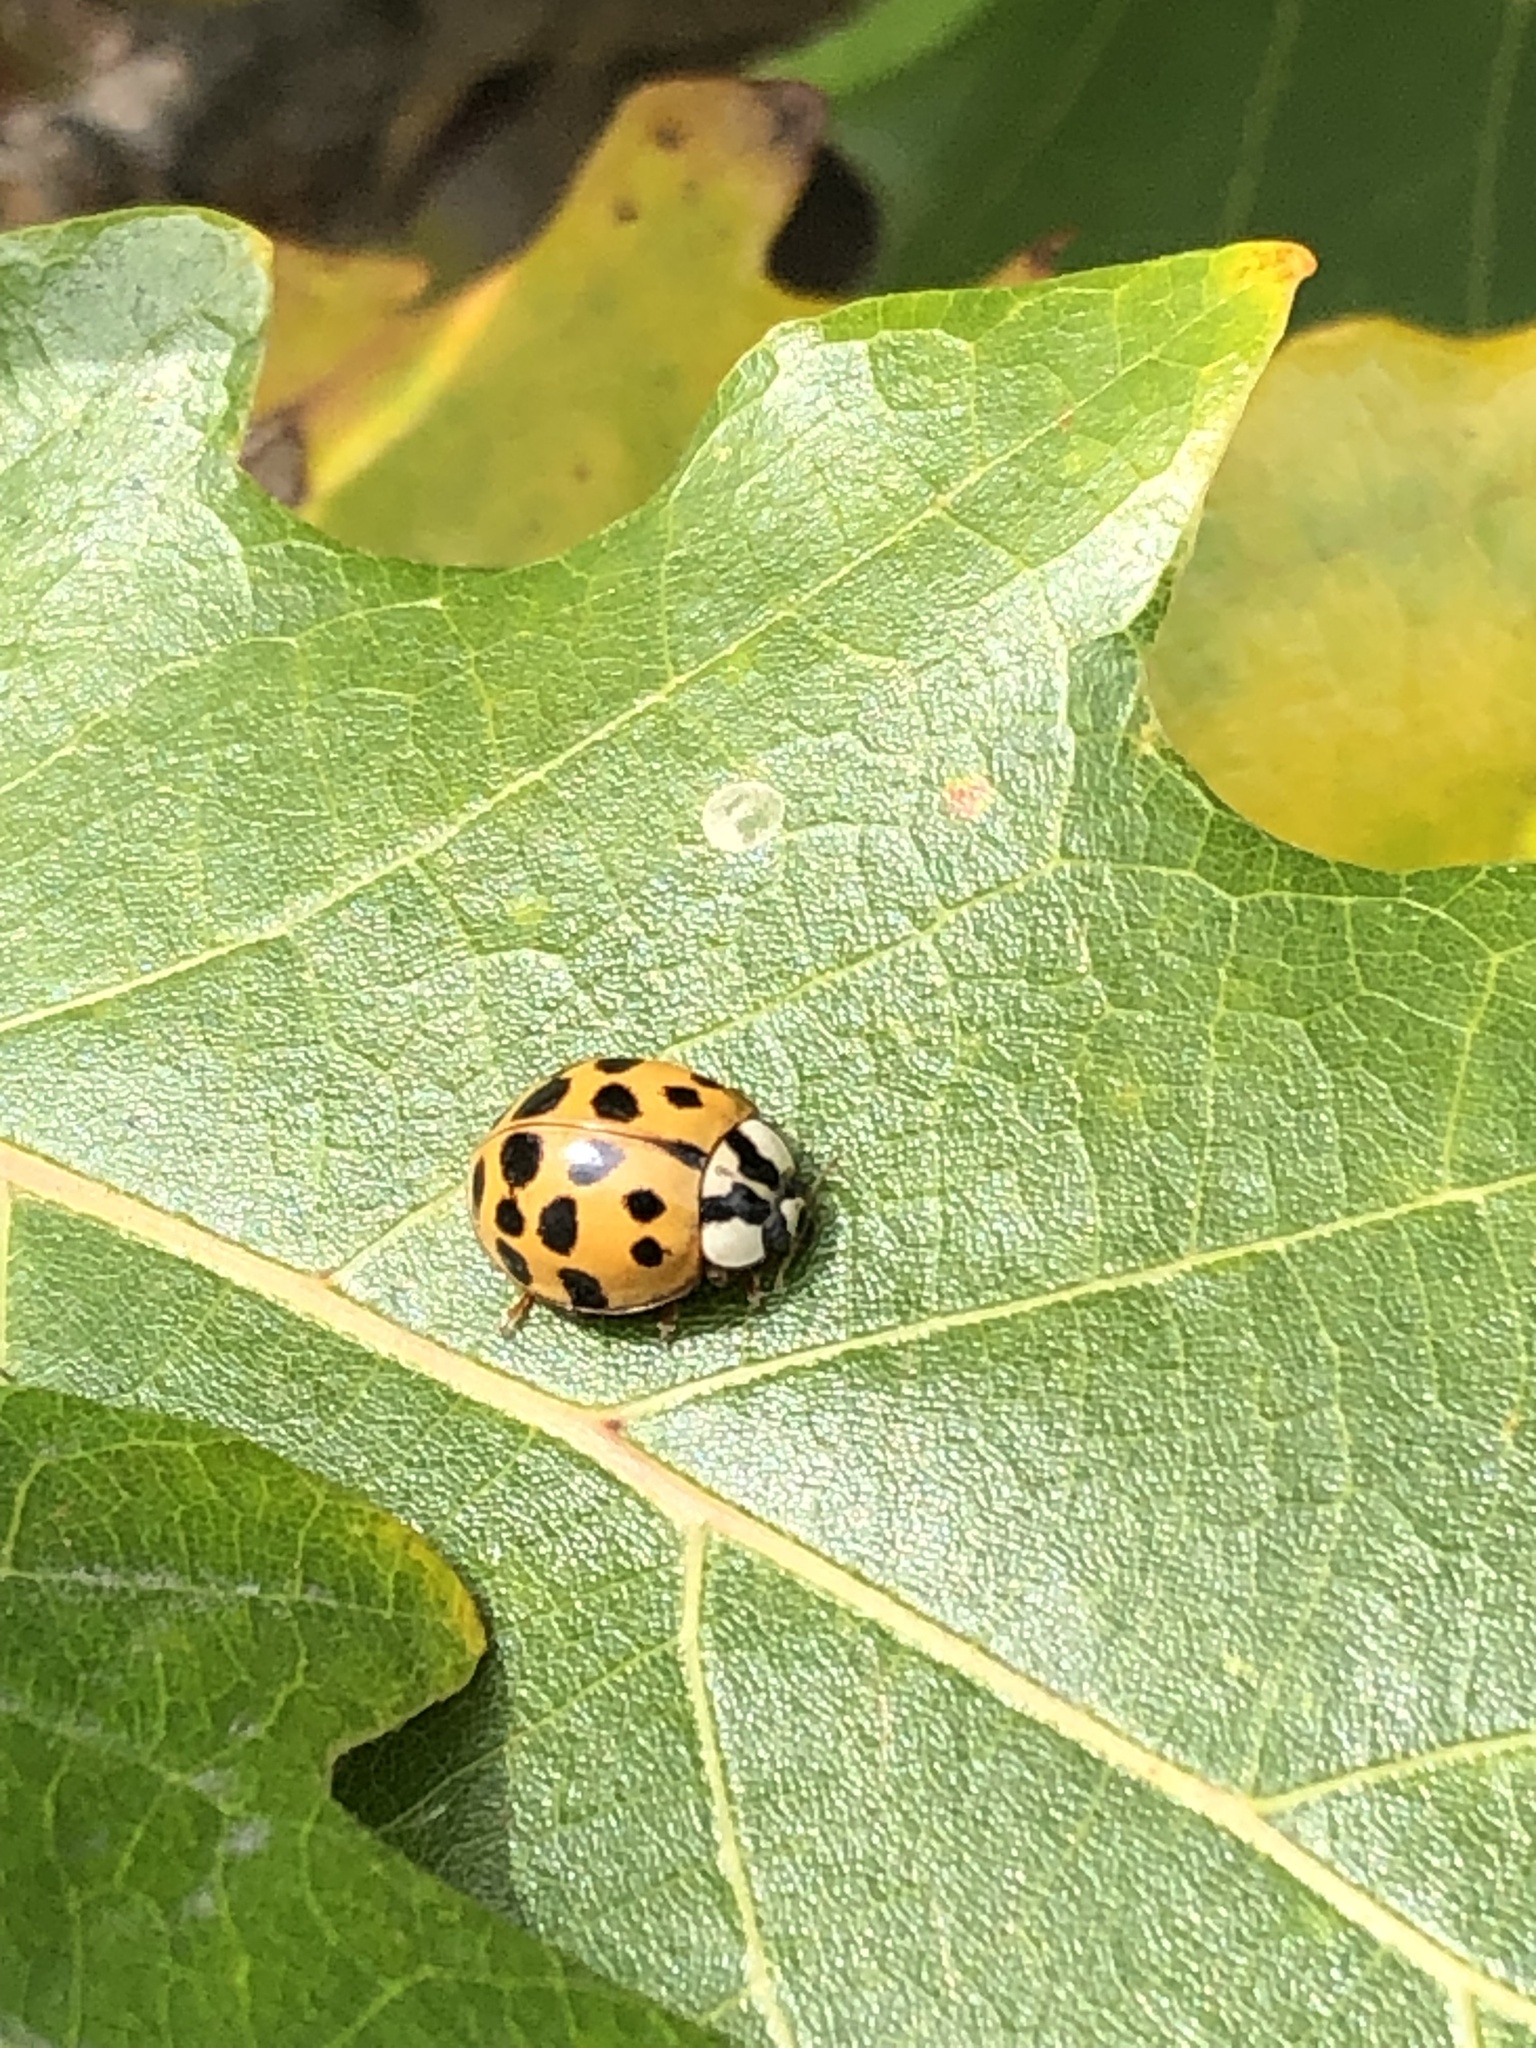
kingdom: Animalia
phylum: Arthropoda
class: Insecta
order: Coleoptera
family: Coccinellidae
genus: Harmonia
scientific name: Harmonia axyridis
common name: Harlequin ladybird
